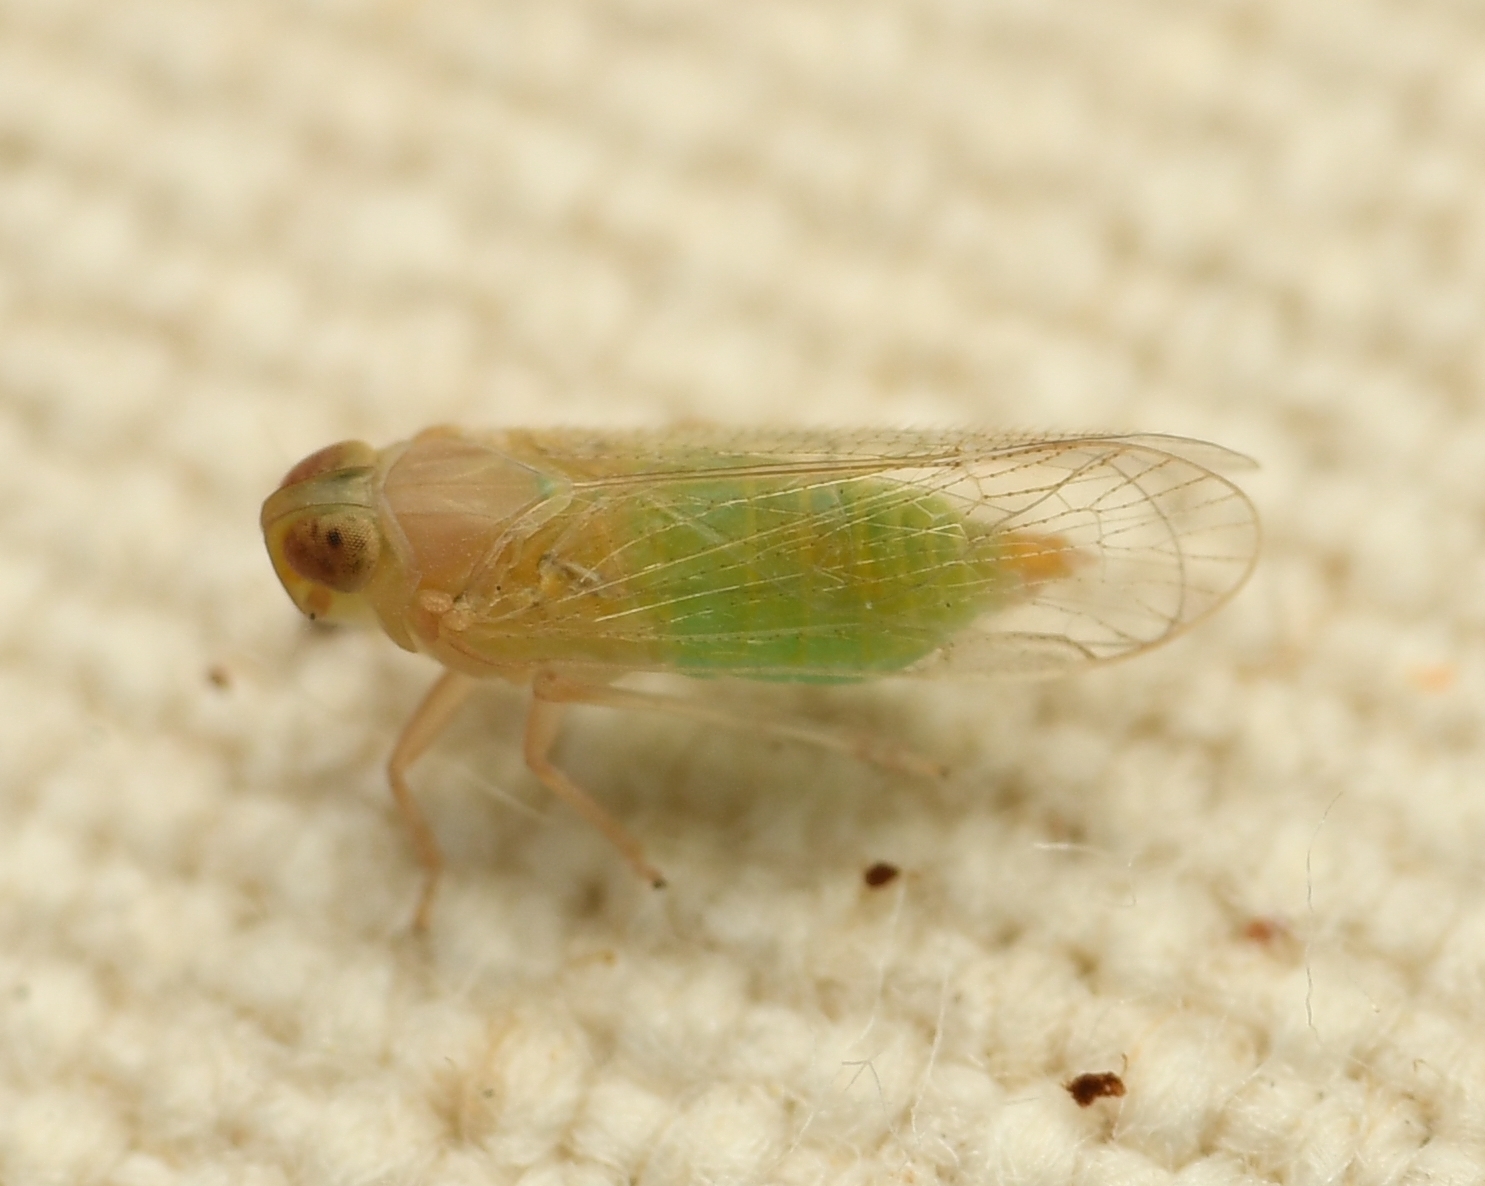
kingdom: Animalia
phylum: Arthropoda
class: Insecta
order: Hemiptera
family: Cixiidae
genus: Haplaxius
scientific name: Haplaxius crudus
